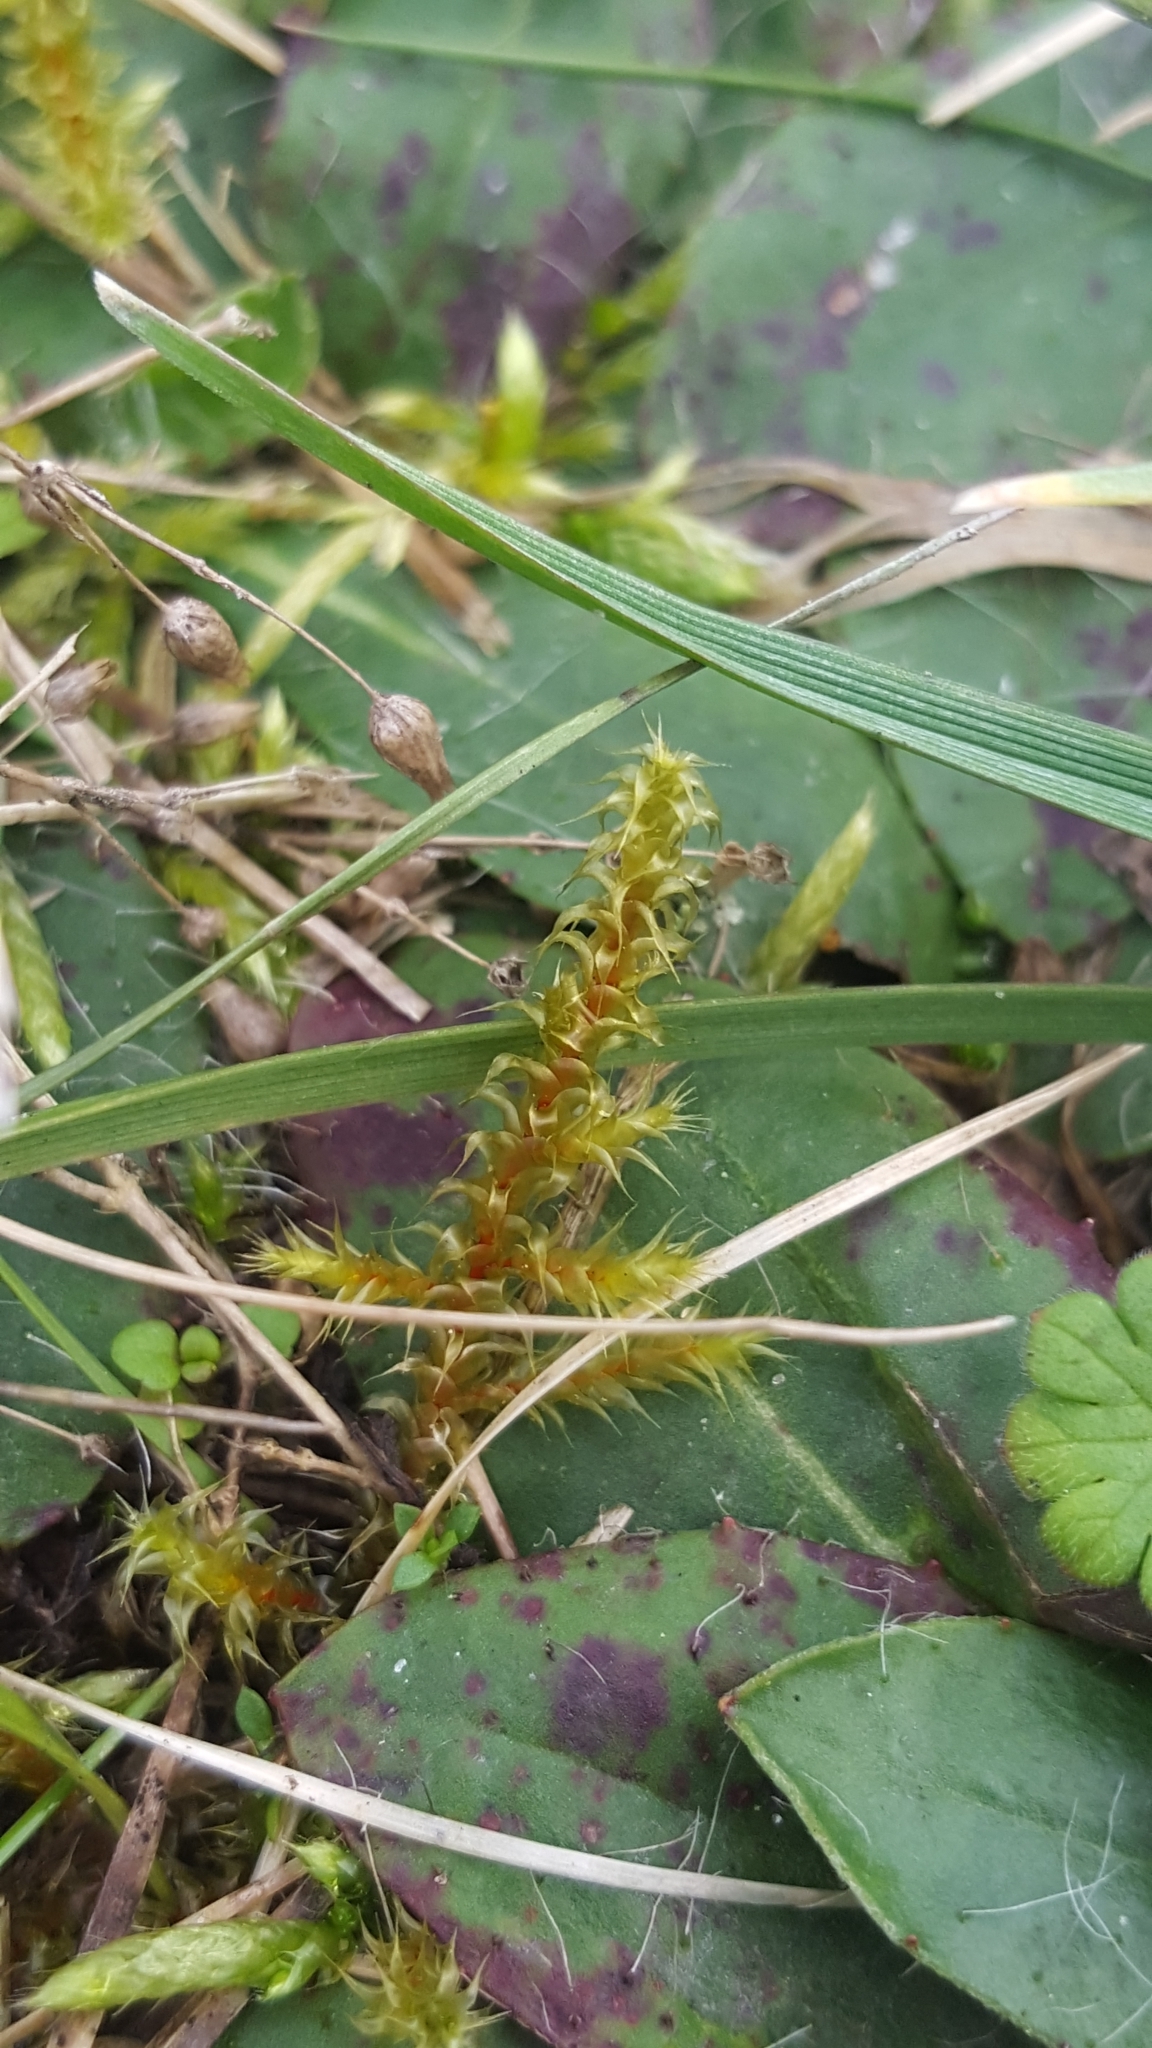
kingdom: Plantae
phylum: Bryophyta
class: Bryopsida
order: Hypnales
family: Hylocomiaceae
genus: Rhytidiadelphus
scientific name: Rhytidiadelphus squarrosus
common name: Springy turf-moss
